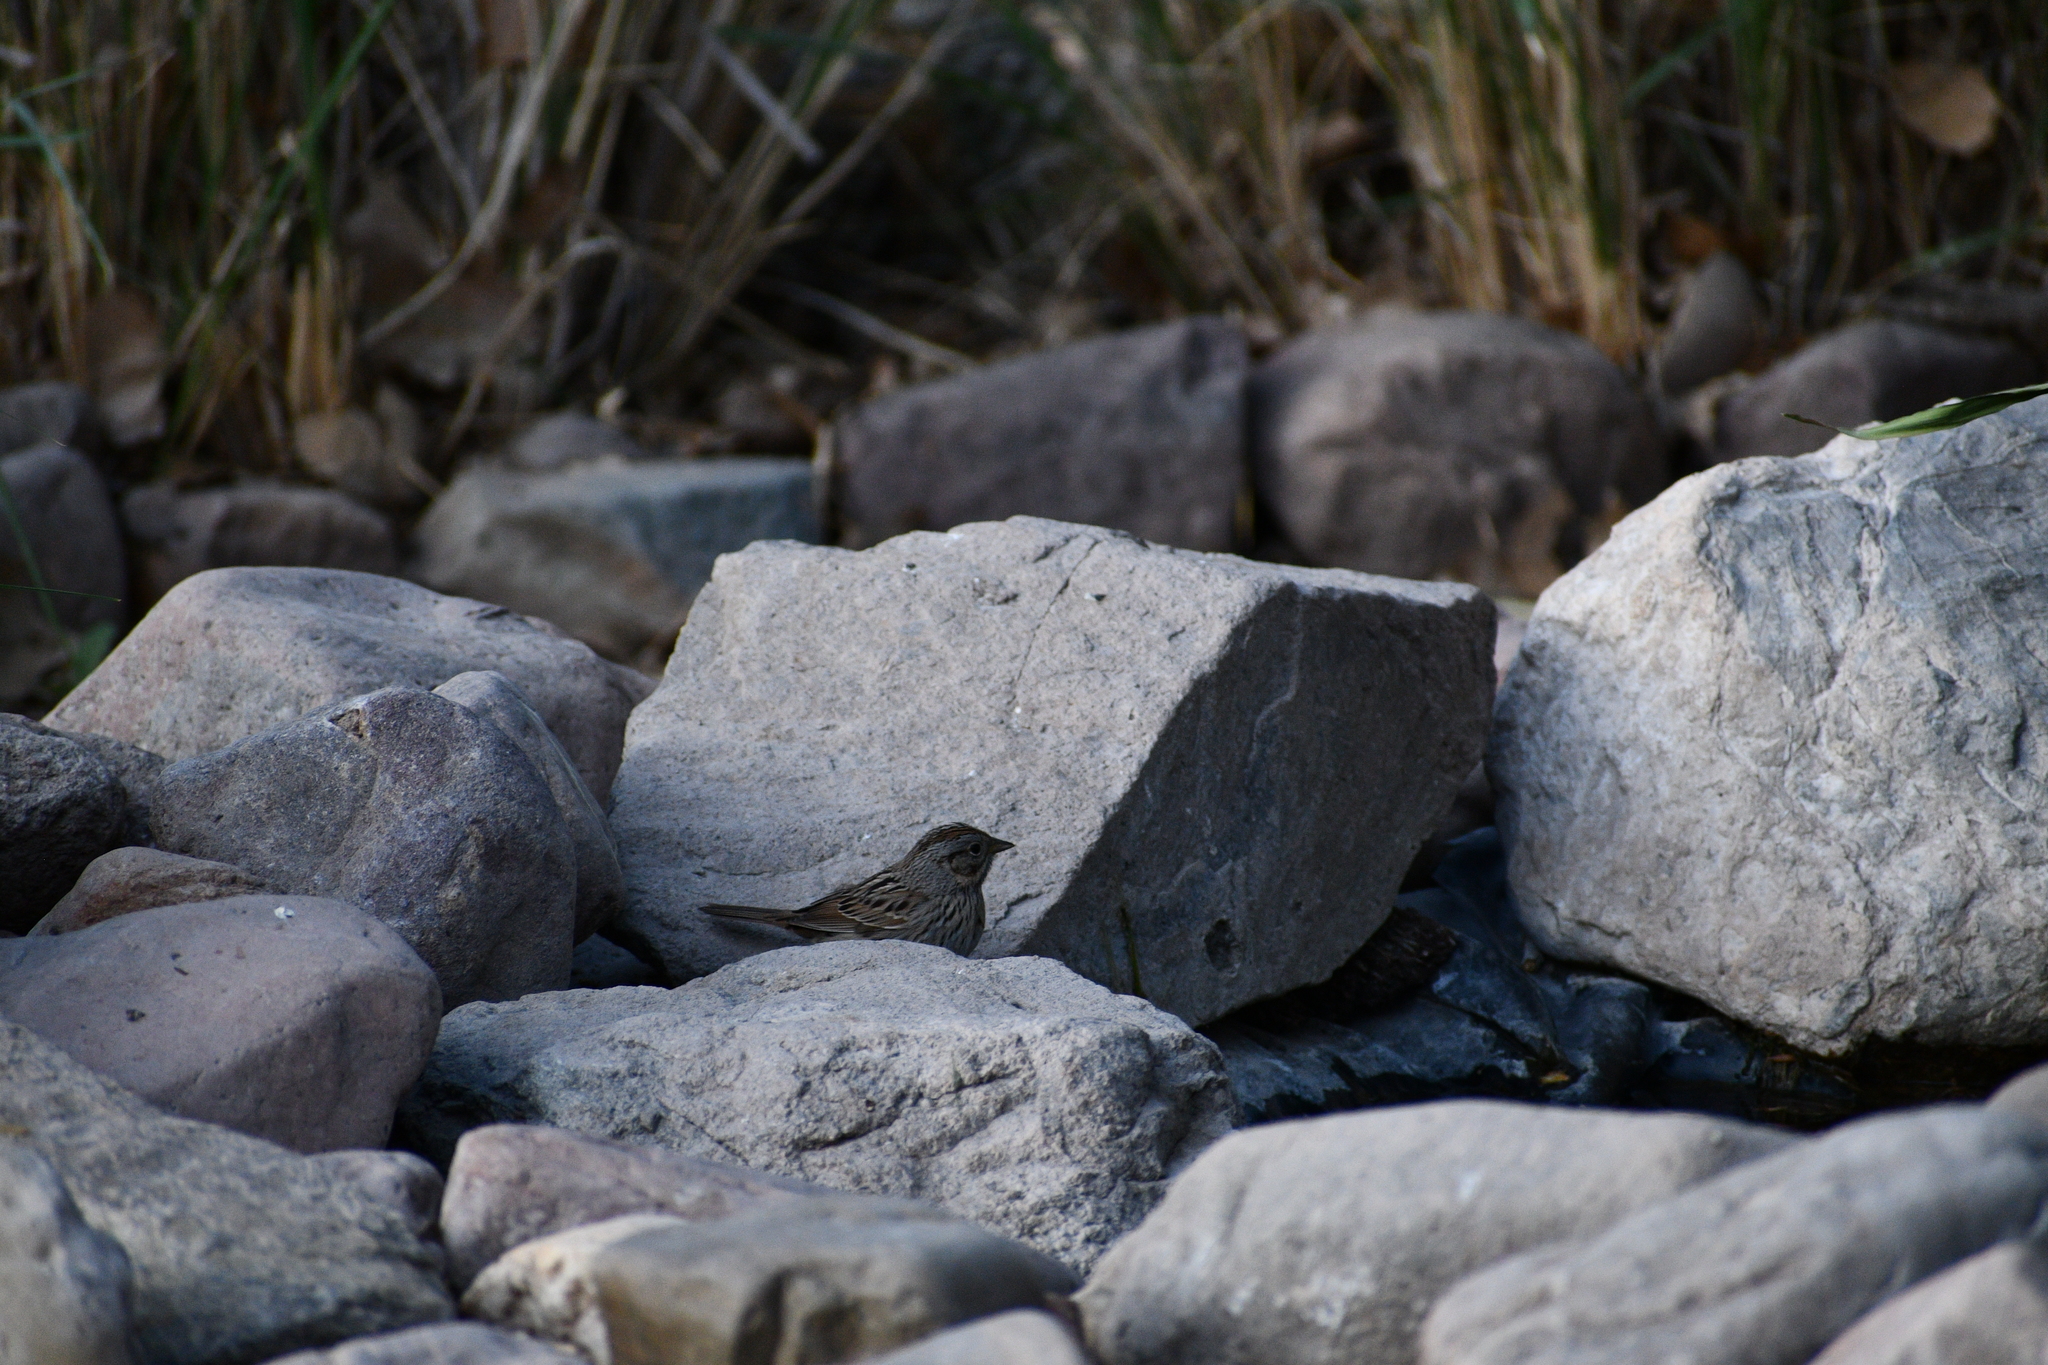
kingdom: Animalia
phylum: Chordata
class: Aves
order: Passeriformes
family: Passerellidae
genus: Melospiza
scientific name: Melospiza lincolnii
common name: Lincoln's sparrow
